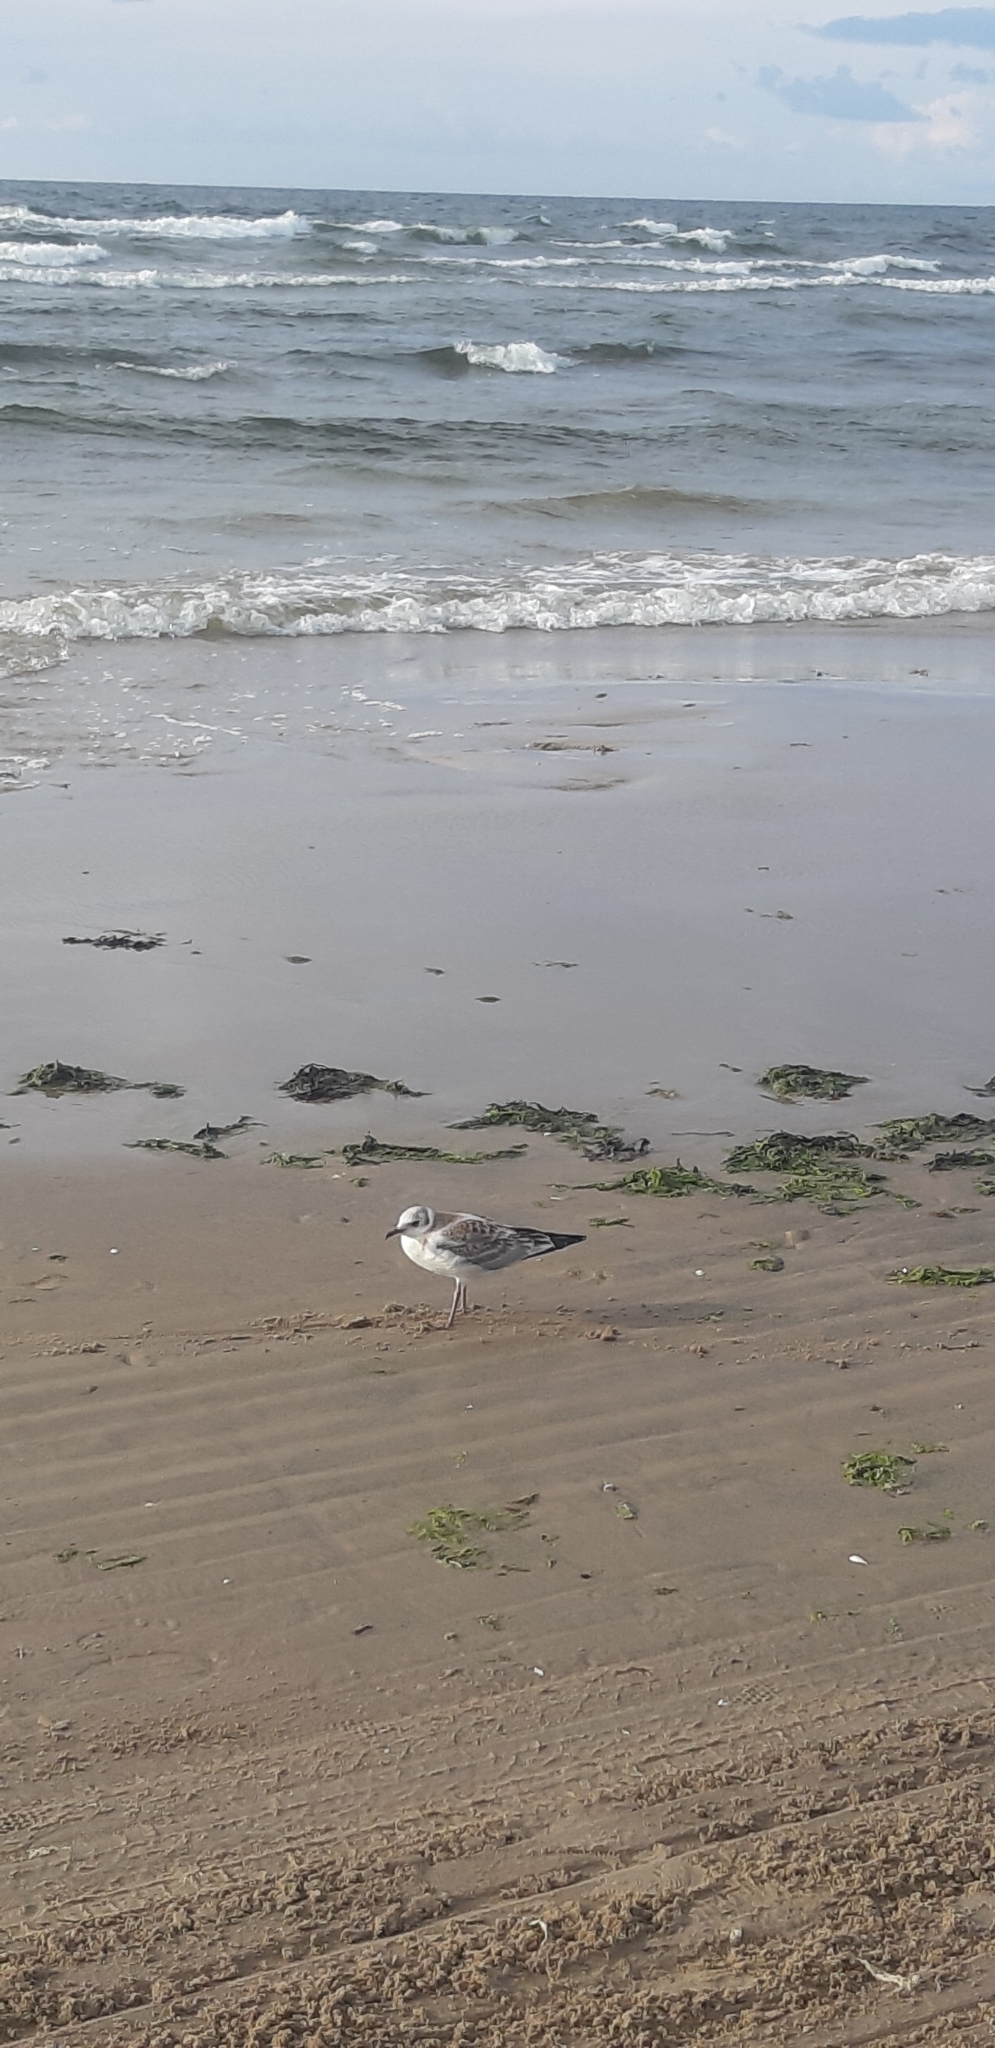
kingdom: Animalia
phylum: Chordata
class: Aves
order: Charadriiformes
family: Laridae
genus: Chroicocephalus
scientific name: Chroicocephalus ridibundus
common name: Black-headed gull
